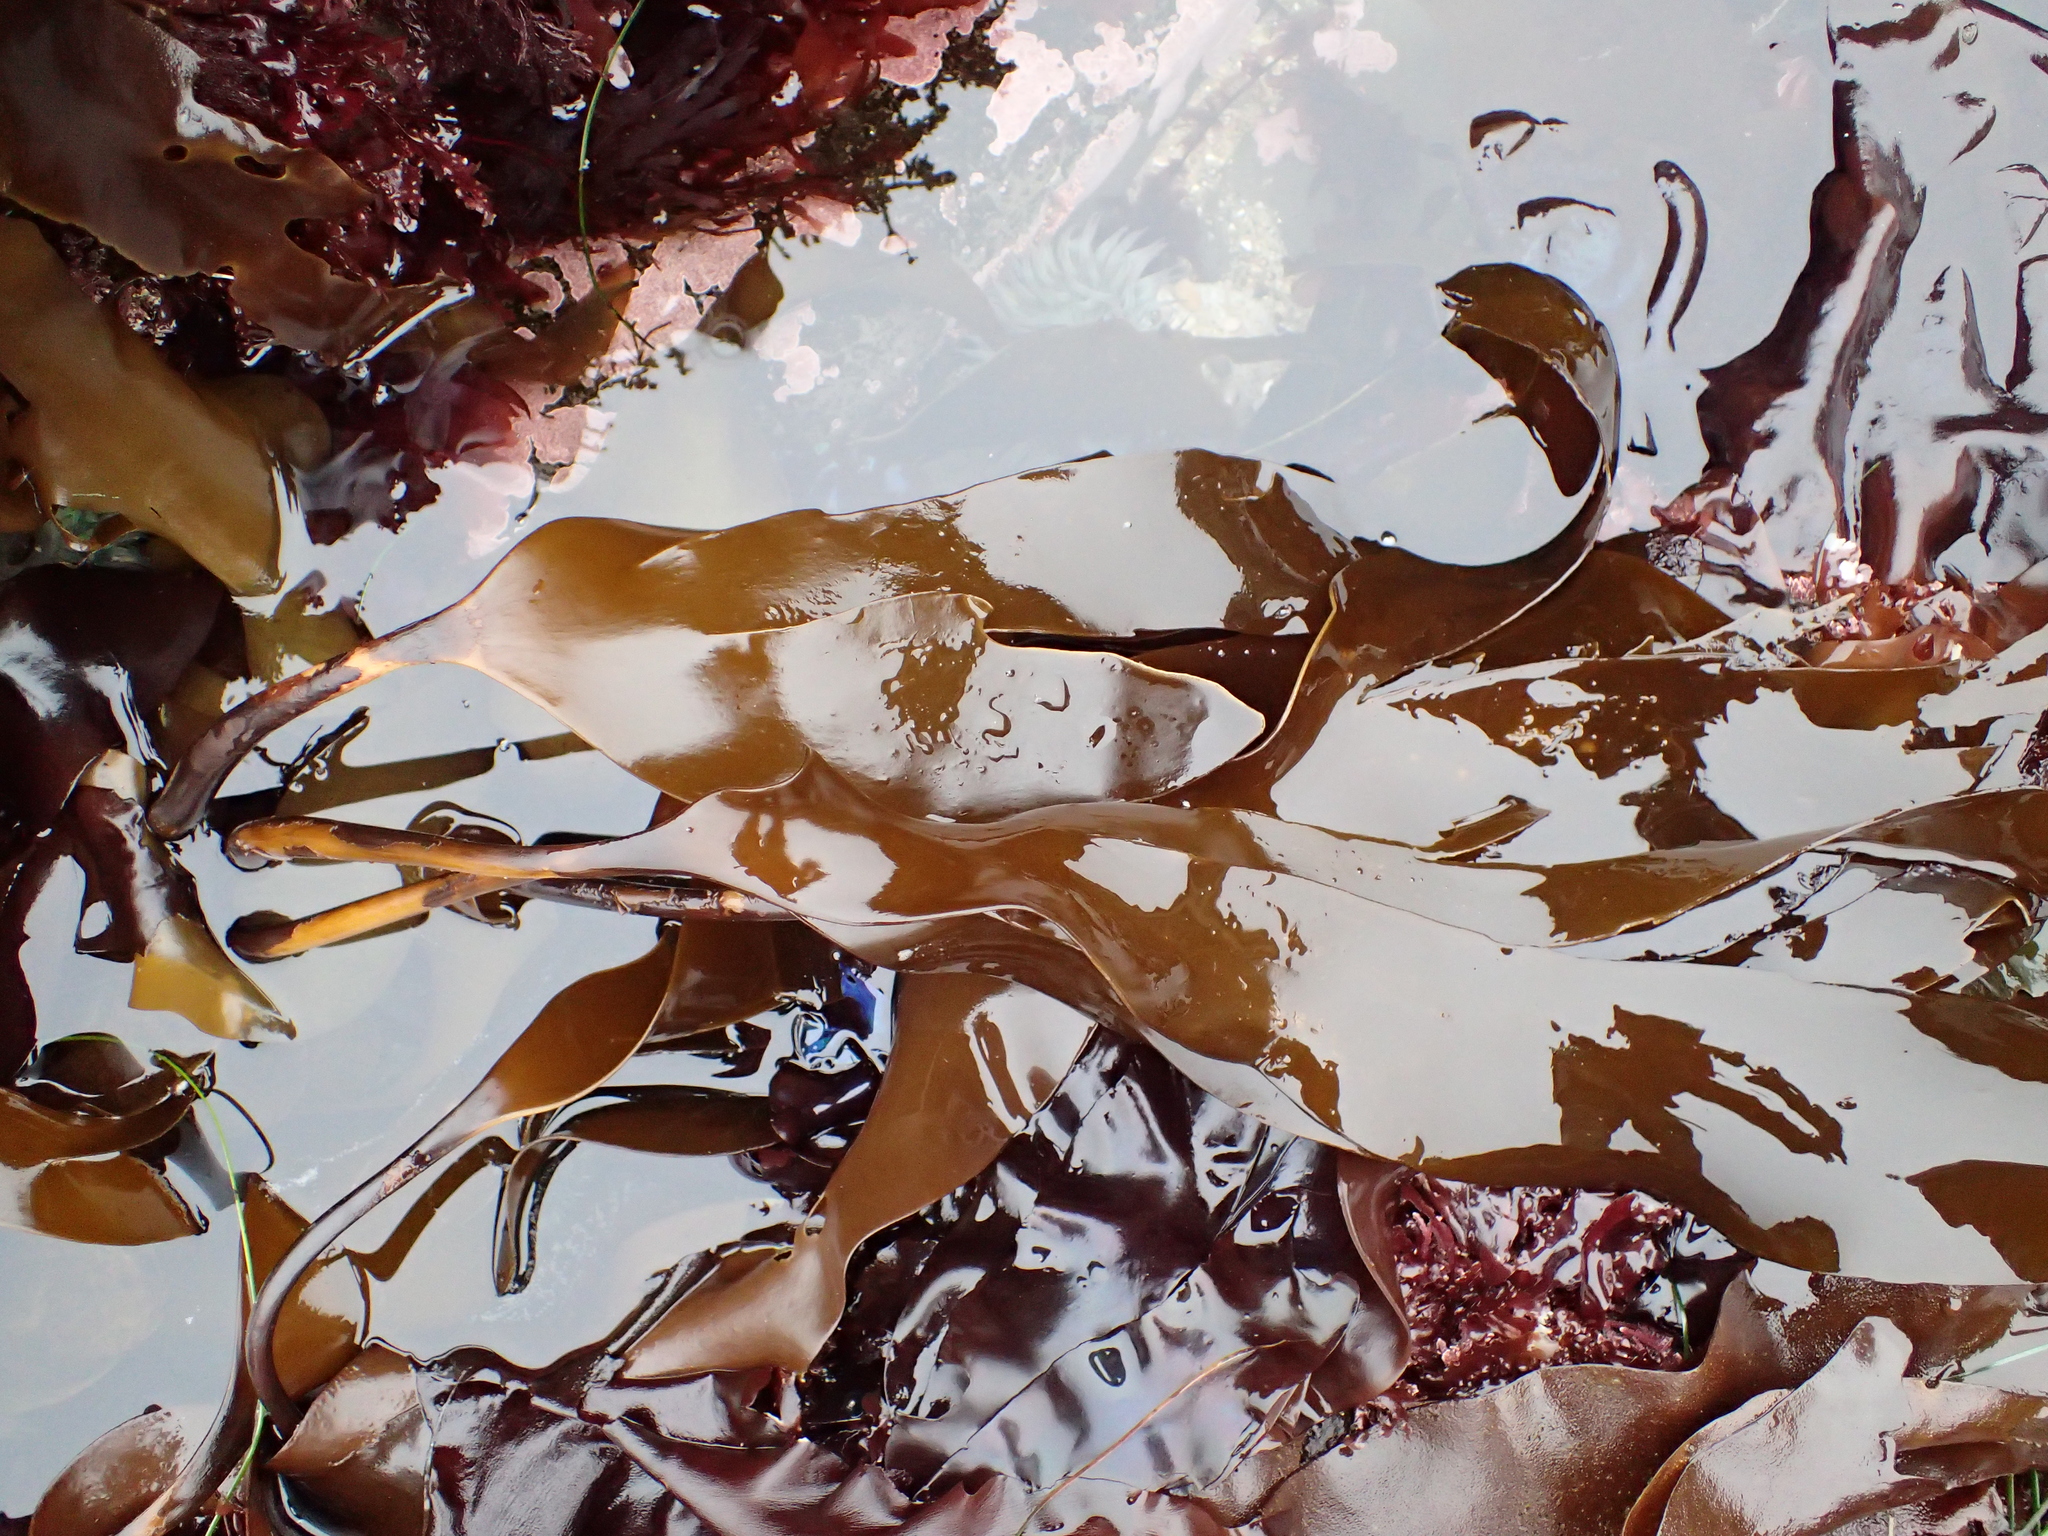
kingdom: Chromista
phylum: Ochrophyta
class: Phaeophyceae
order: Laminariales
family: Laminariaceae
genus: Laminaria
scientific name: Laminaria setchellii
